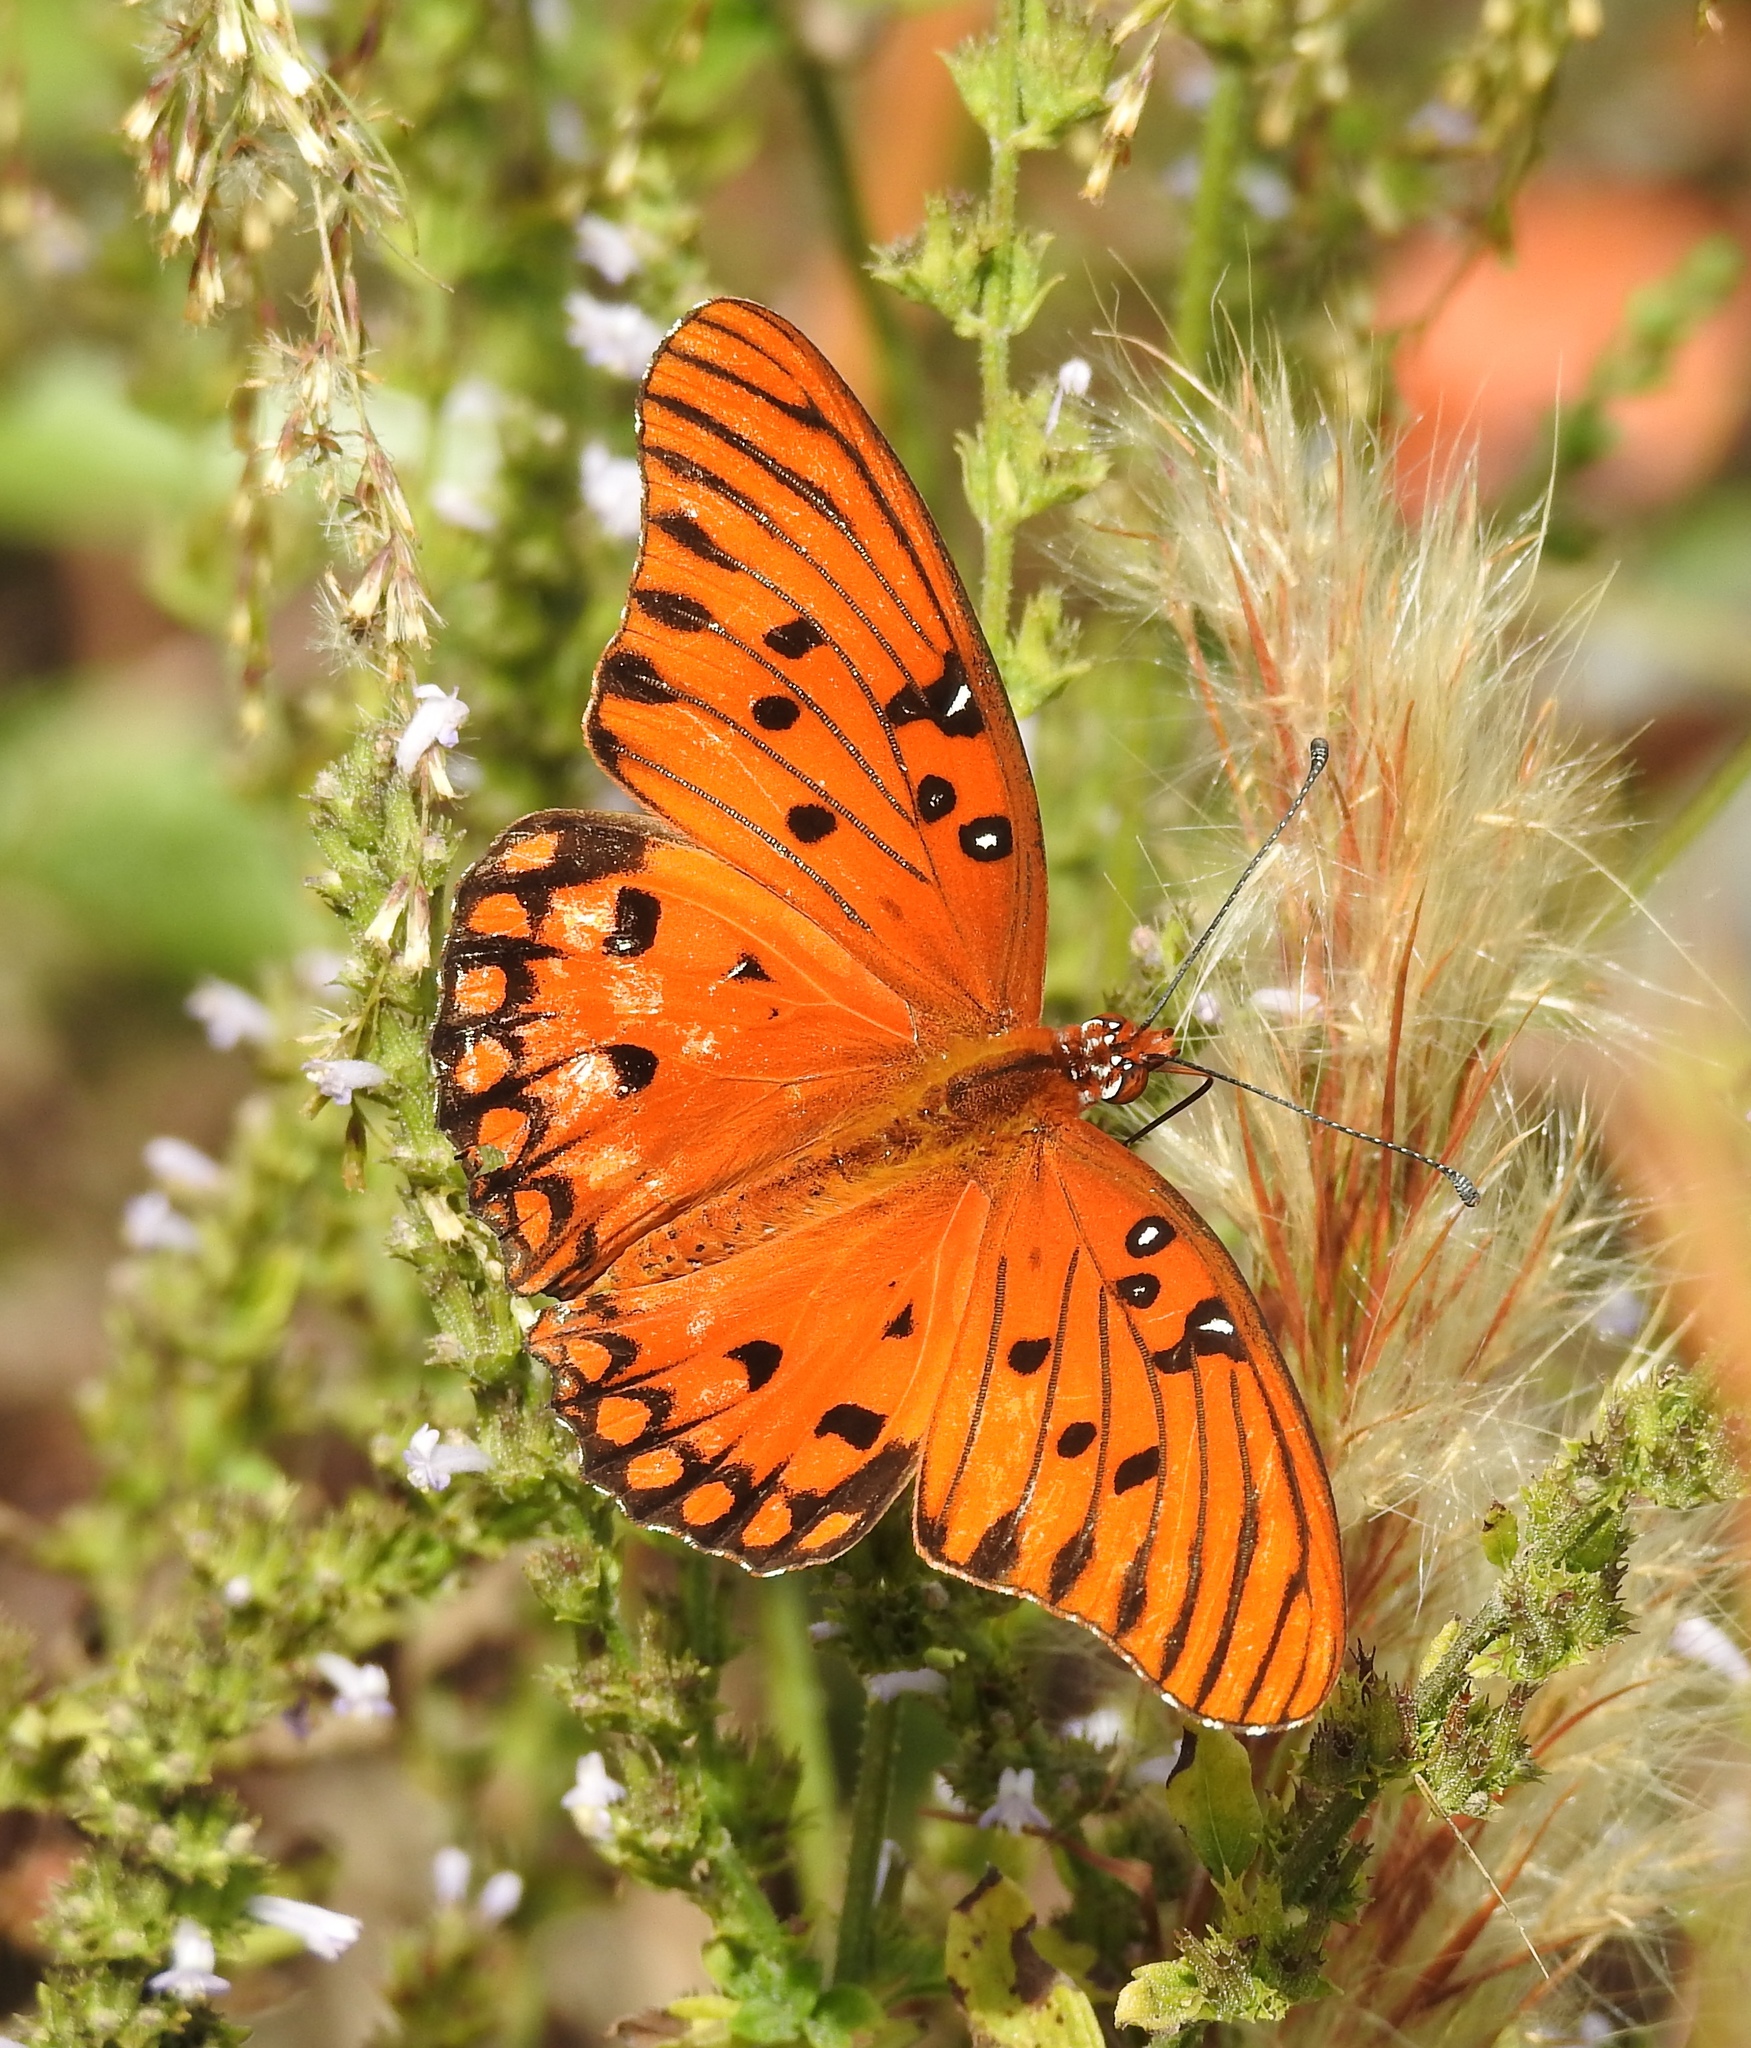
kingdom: Animalia
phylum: Arthropoda
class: Insecta
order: Lepidoptera
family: Nymphalidae
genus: Dione
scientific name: Dione vanillae
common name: Gulf fritillary
